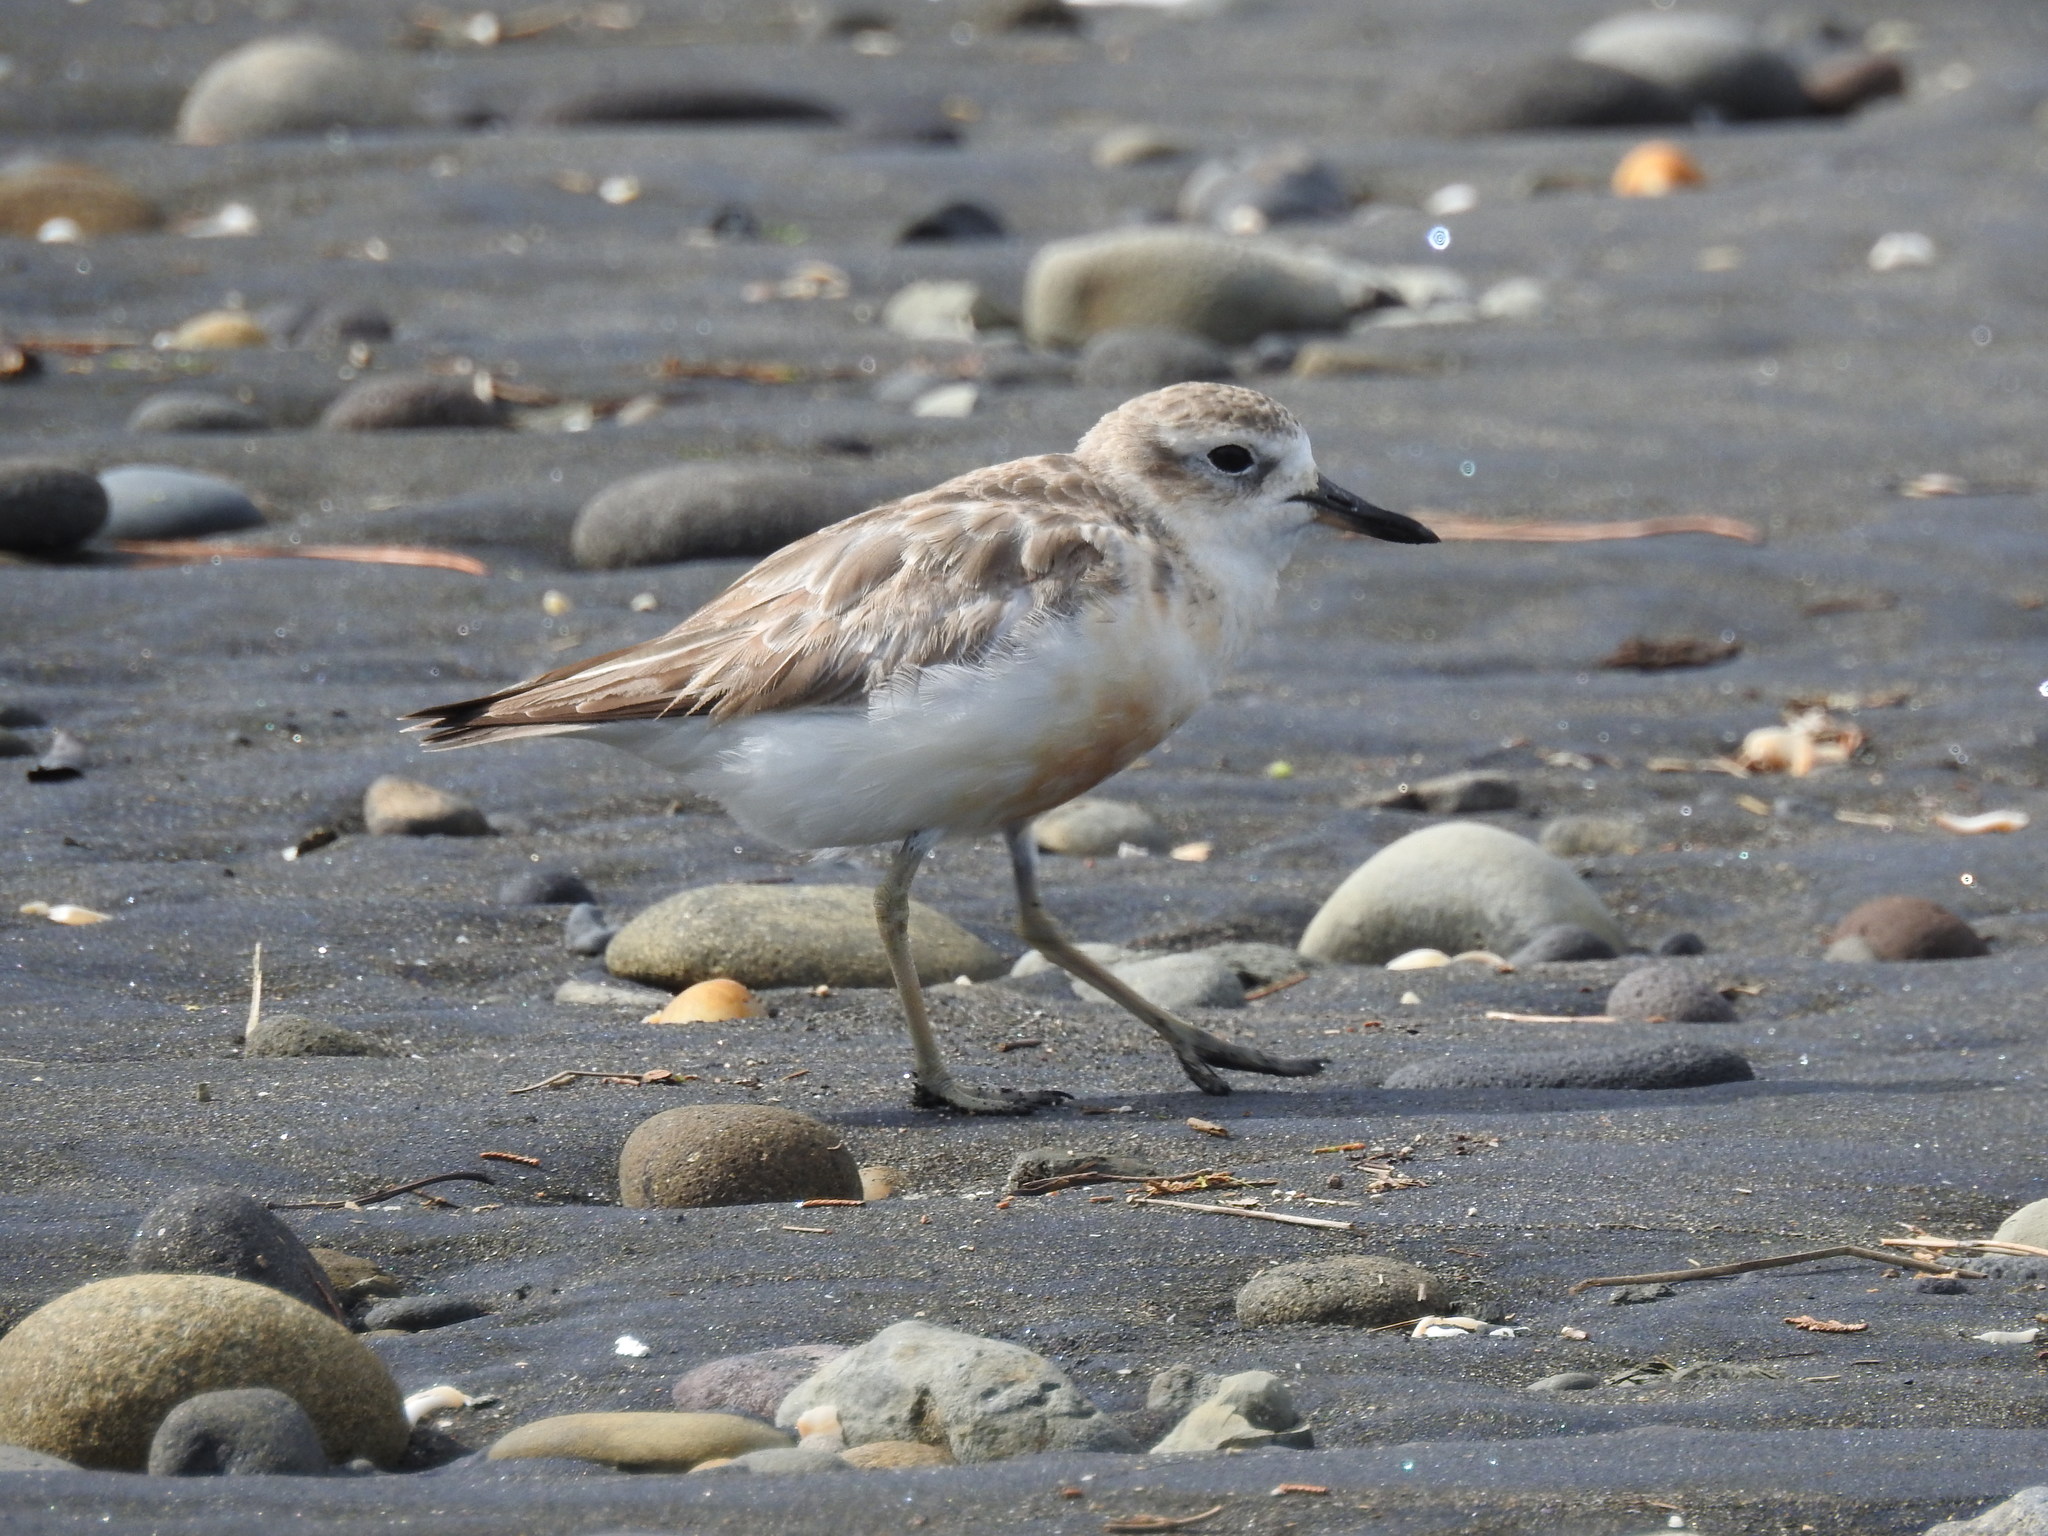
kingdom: Animalia
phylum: Chordata
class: Aves
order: Charadriiformes
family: Charadriidae
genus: Anarhynchus
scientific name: Anarhynchus
